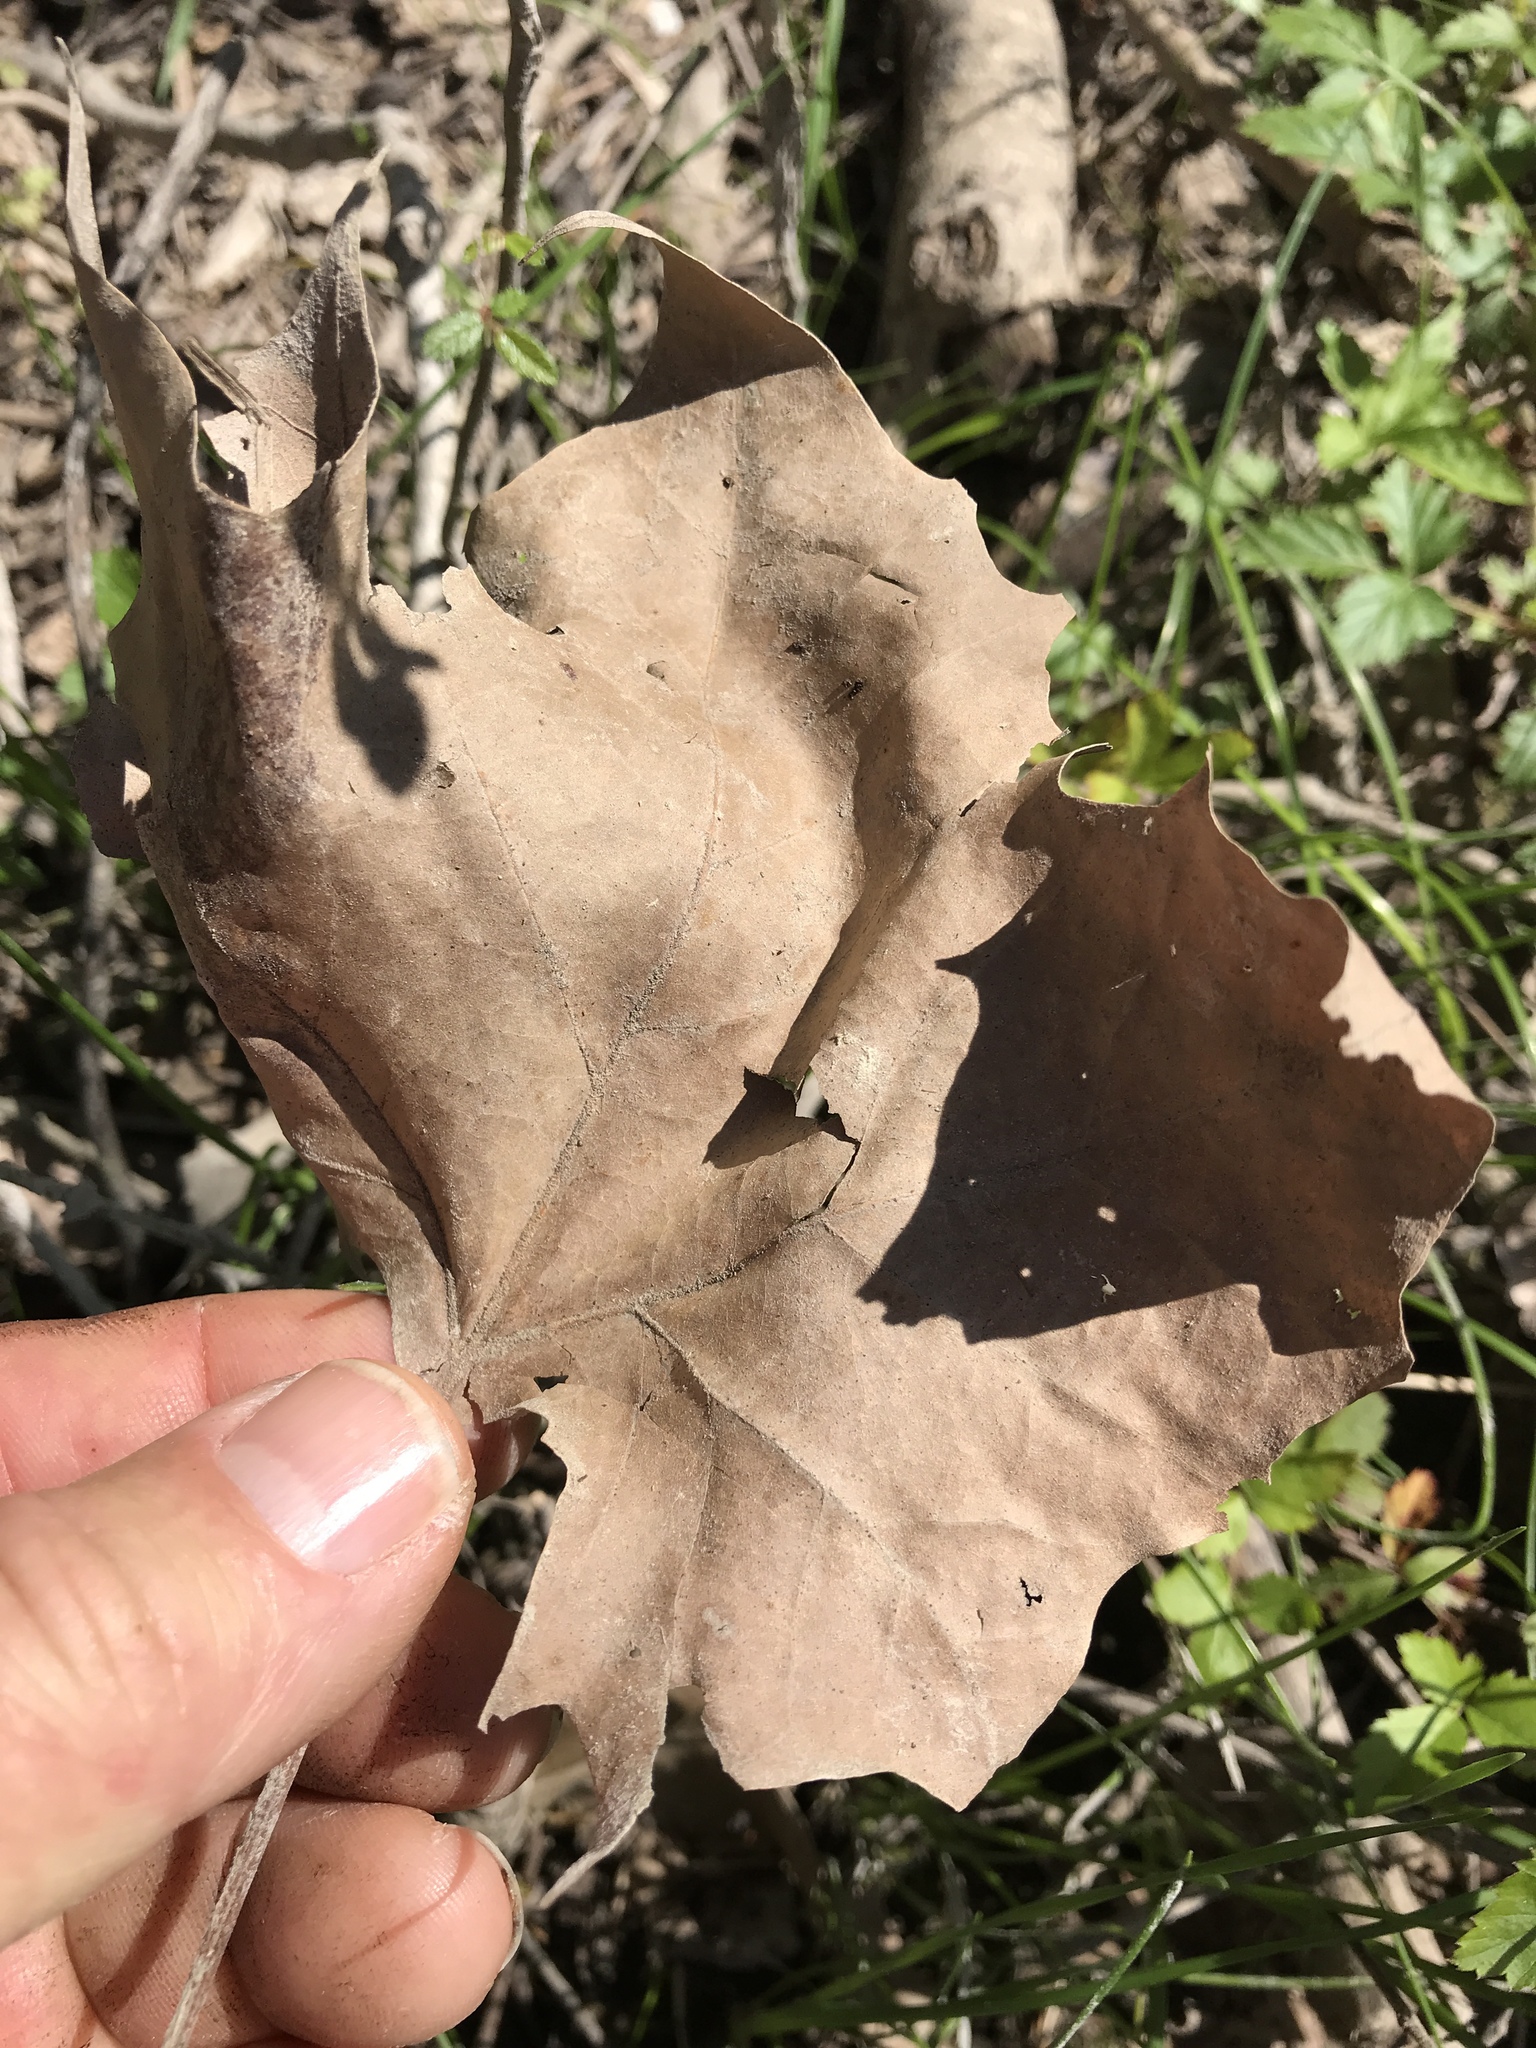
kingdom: Plantae
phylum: Tracheophyta
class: Magnoliopsida
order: Proteales
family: Platanaceae
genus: Platanus
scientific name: Platanus occidentalis
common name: American sycamore
